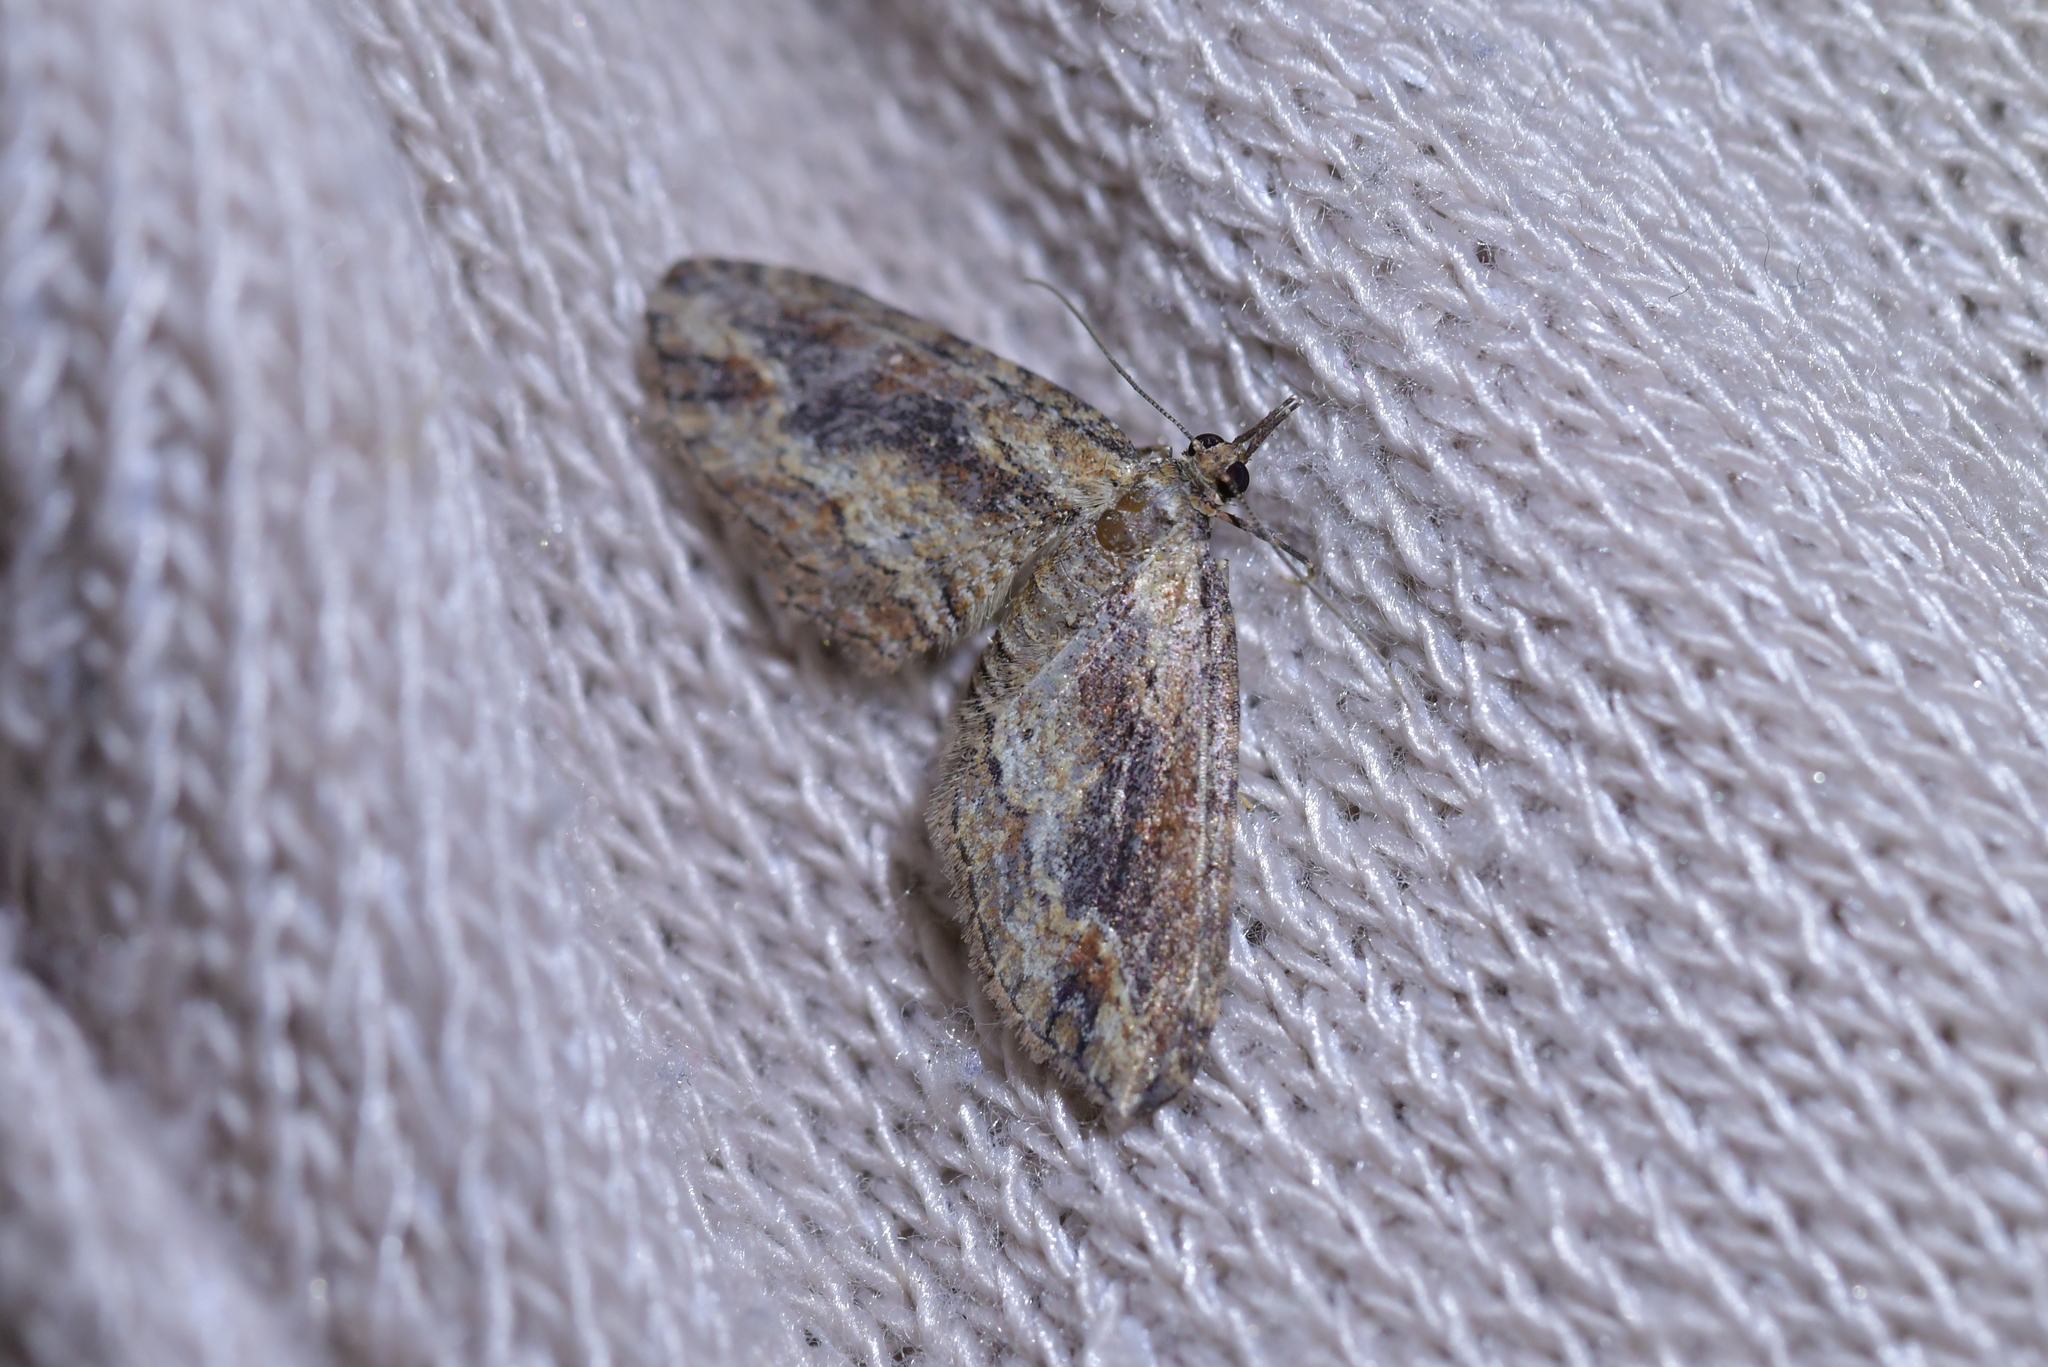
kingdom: Animalia
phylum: Arthropoda
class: Insecta
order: Lepidoptera
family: Geometridae
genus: Chloroclystis
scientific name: Chloroclystis filata
